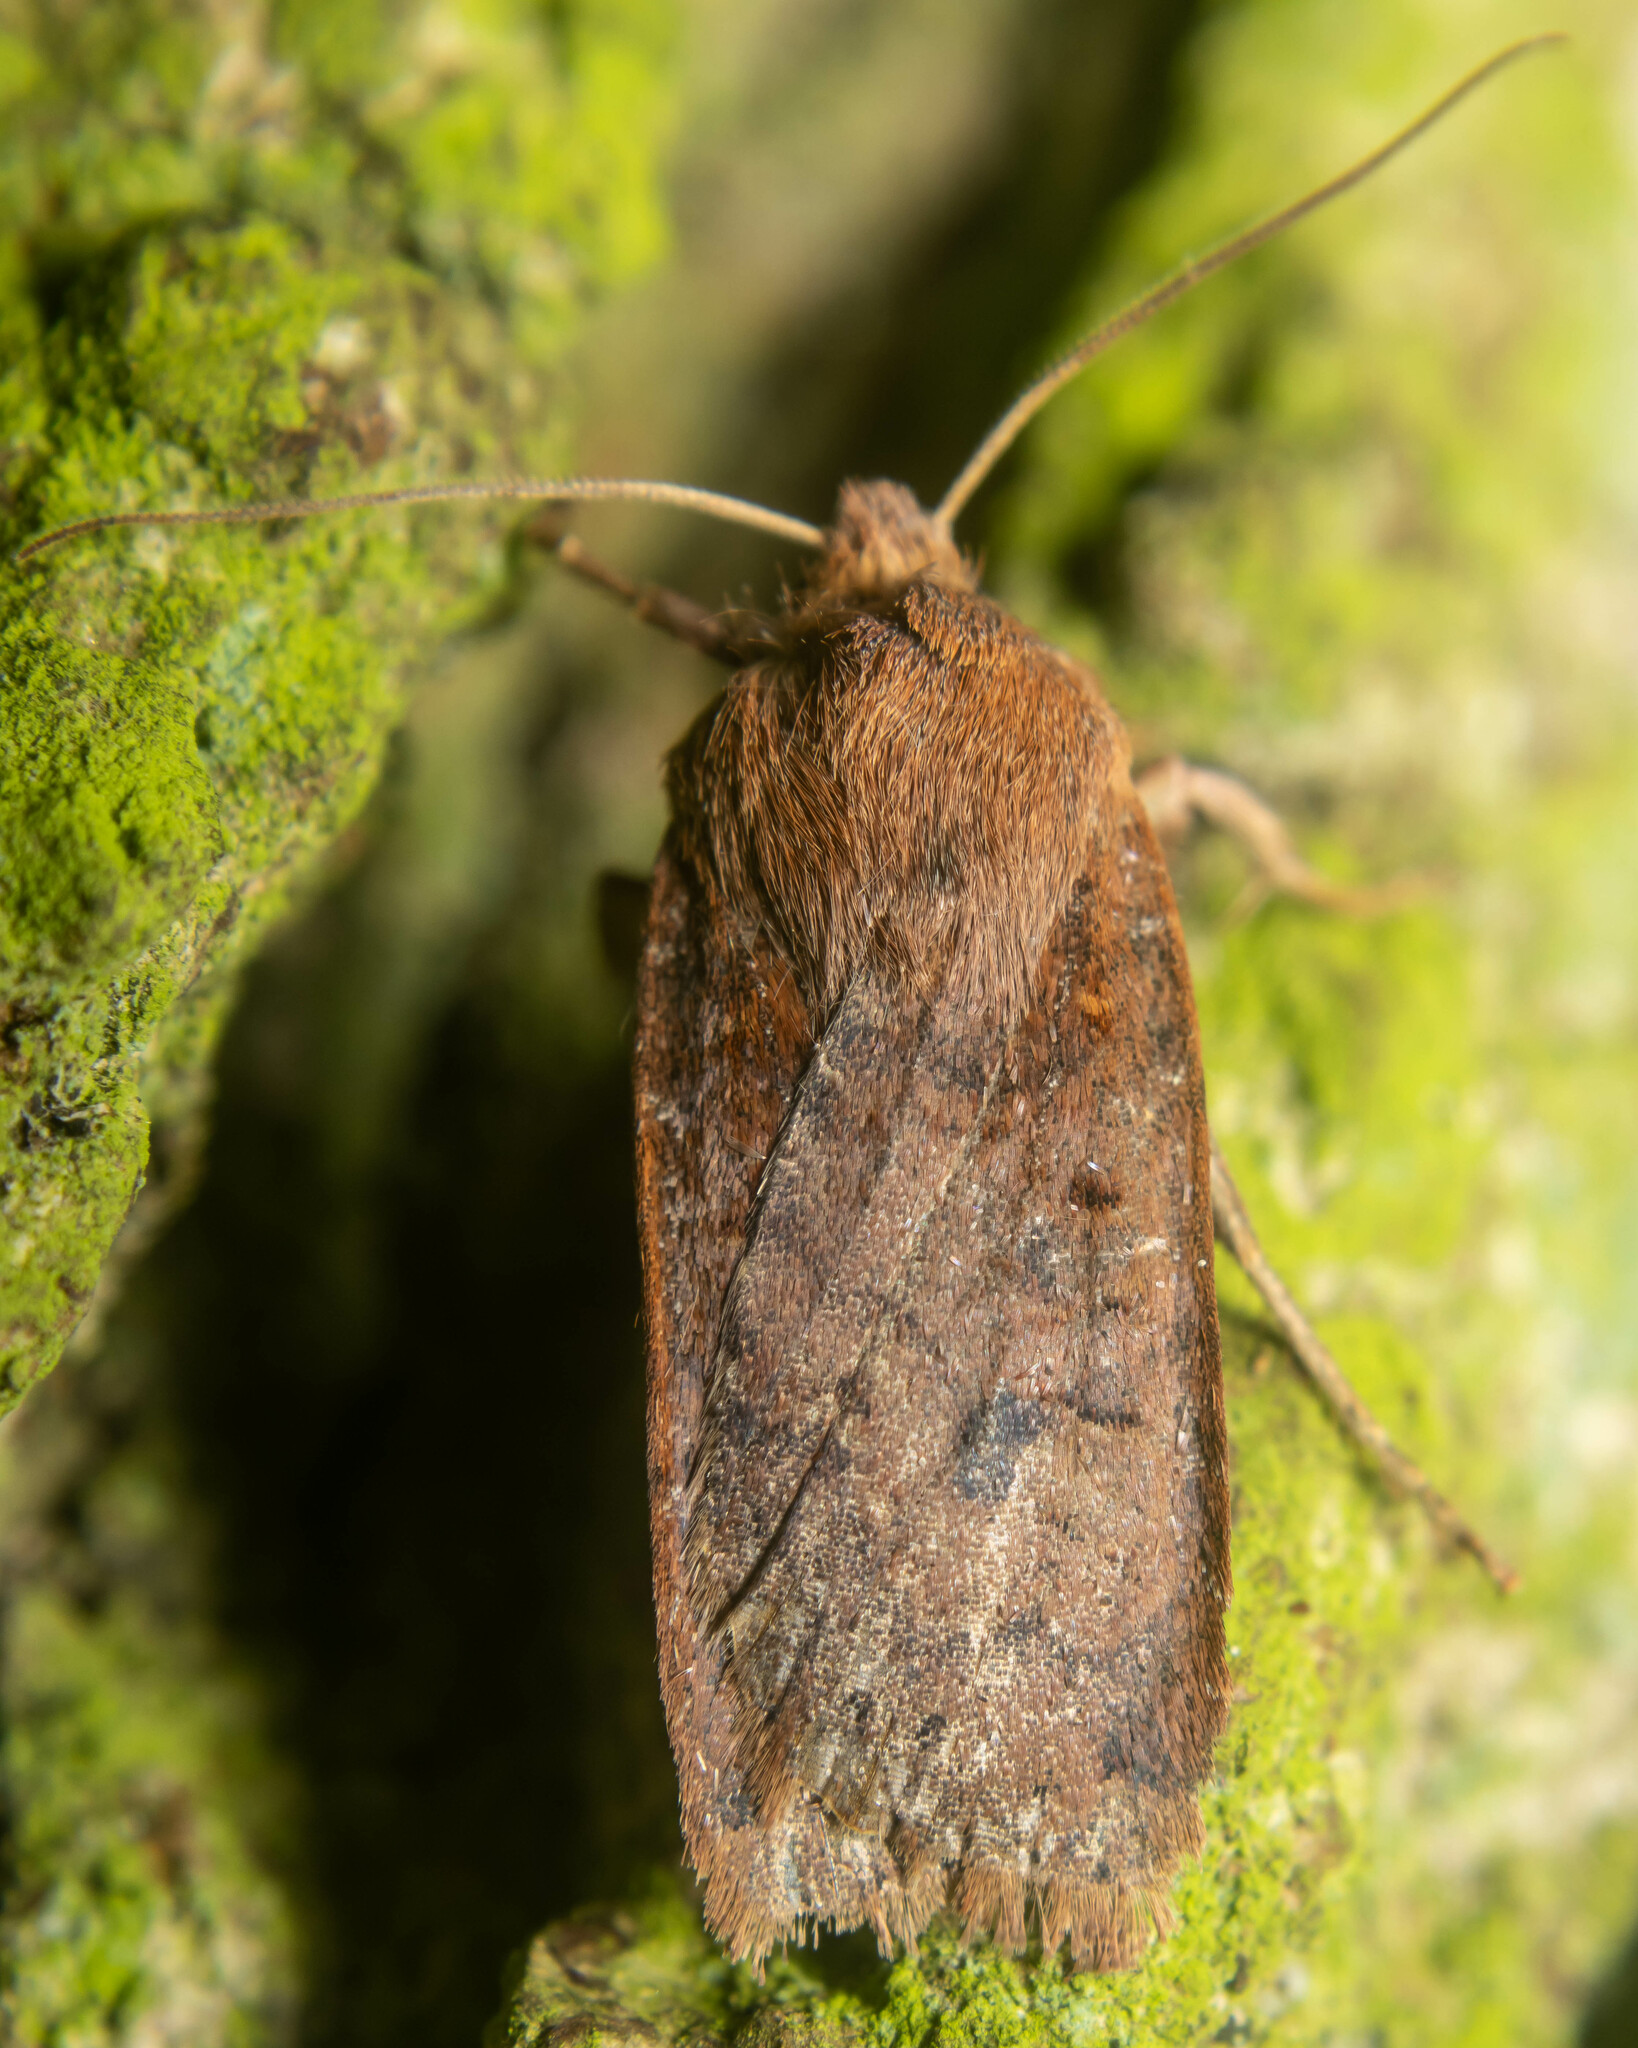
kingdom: Animalia
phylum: Arthropoda
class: Insecta
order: Lepidoptera
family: Noctuidae
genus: Conistra
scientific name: Conistra vaccinii
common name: Chestnut
